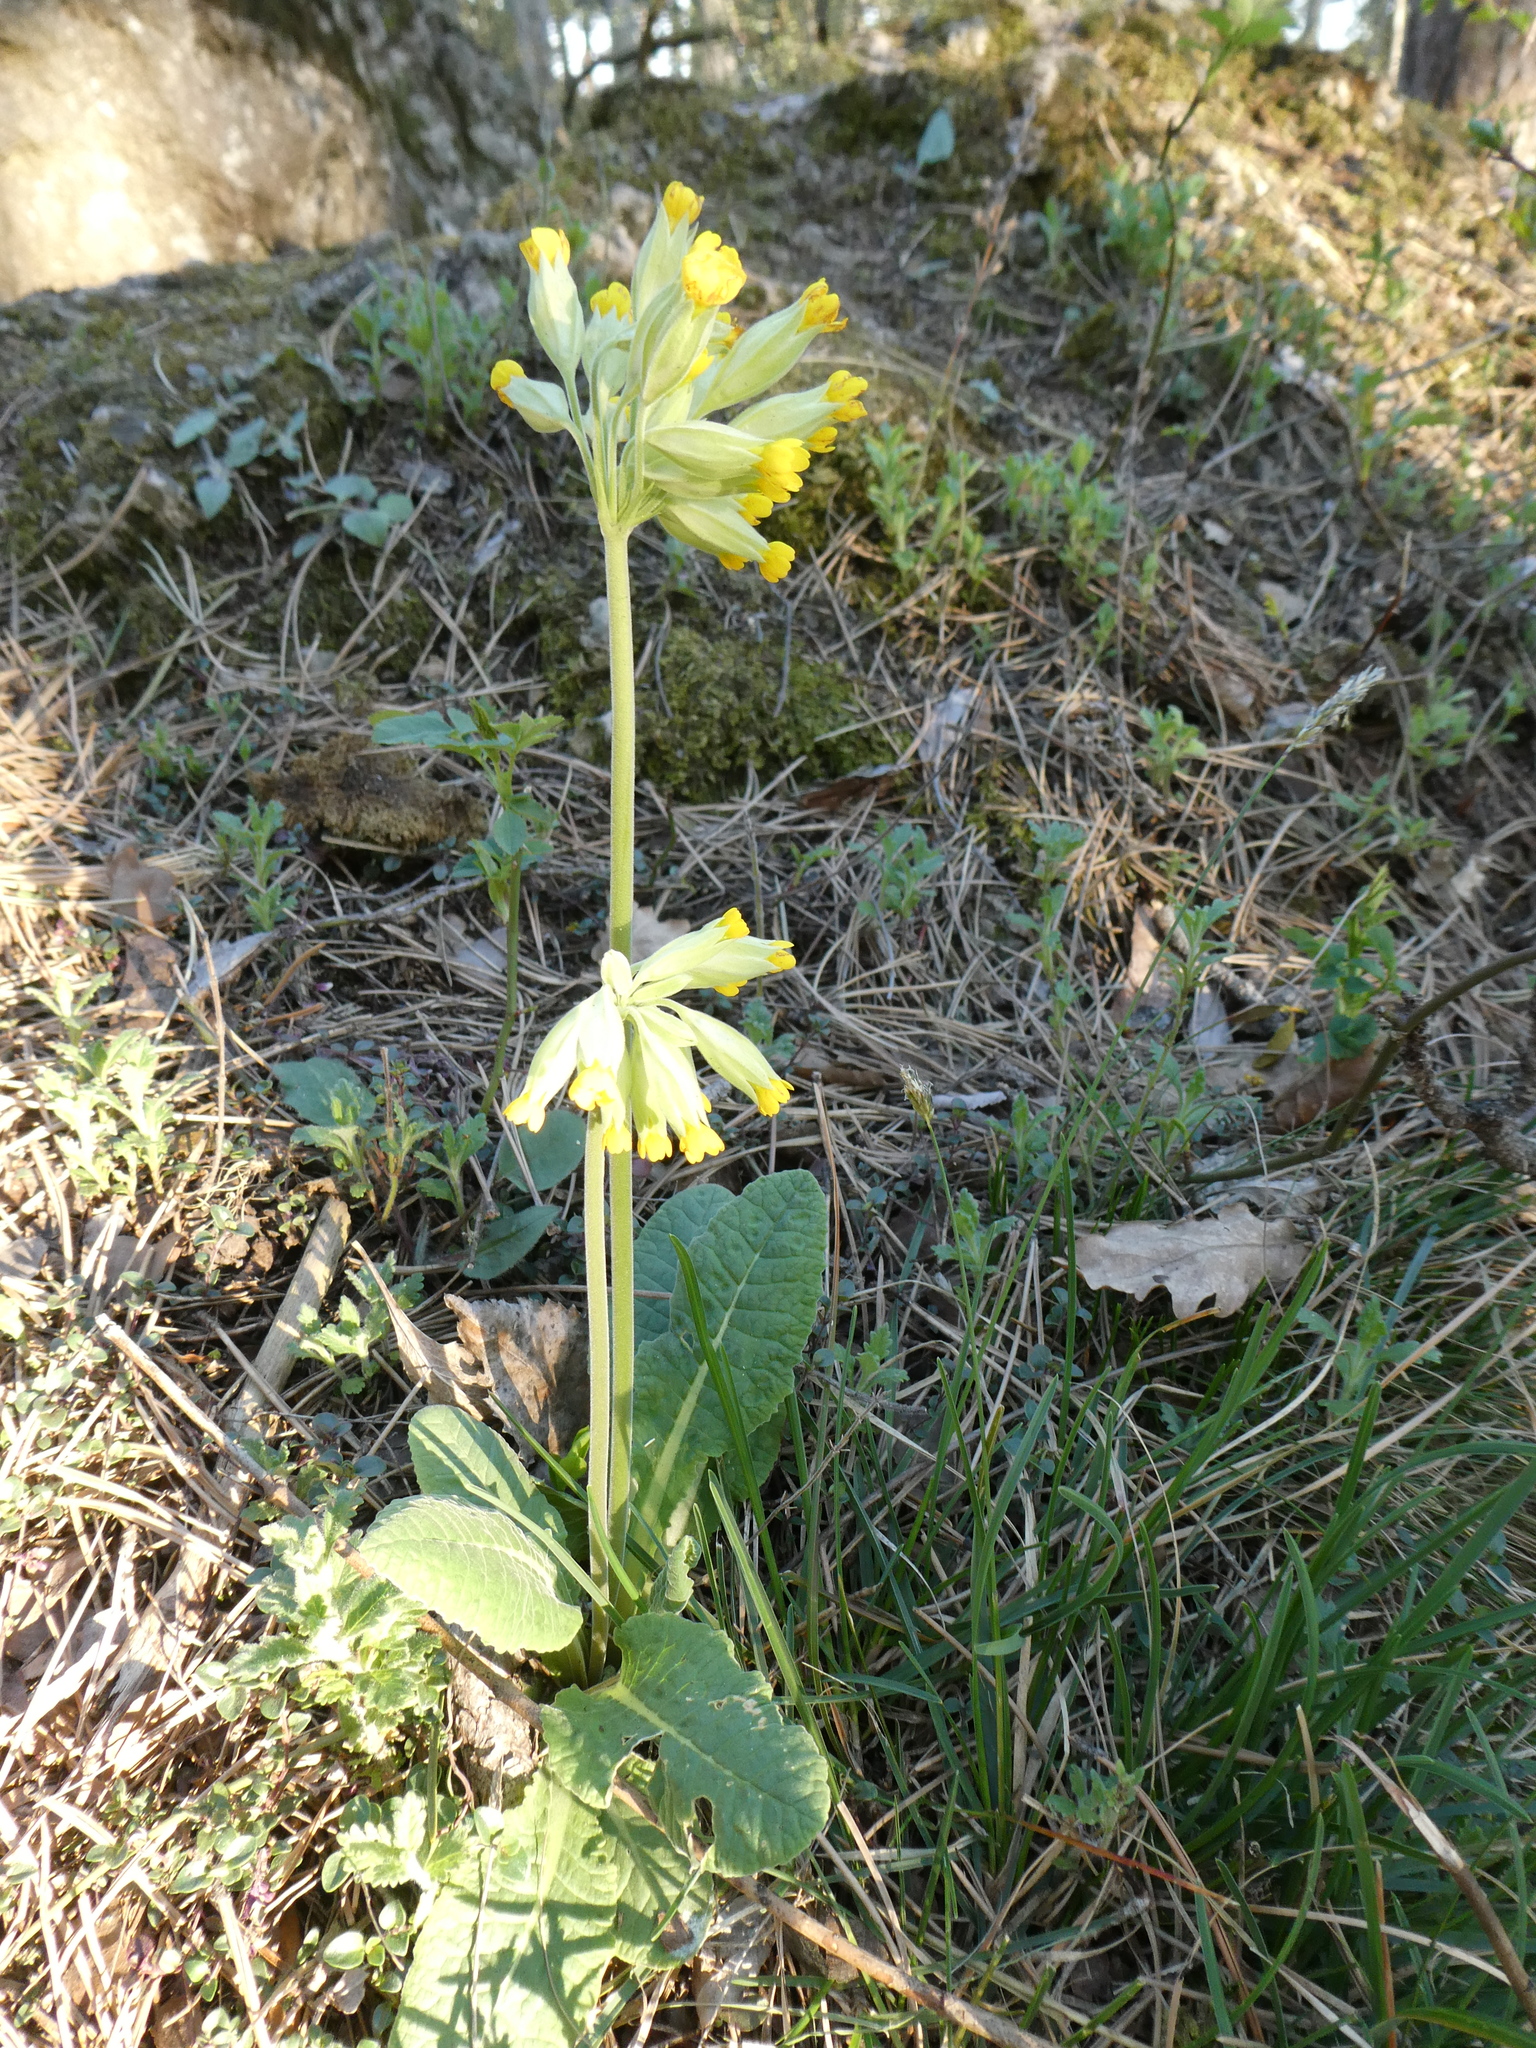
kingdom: Plantae
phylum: Tracheophyta
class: Magnoliopsida
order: Ericales
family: Primulaceae
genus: Primula
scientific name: Primula veris
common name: Cowslip
